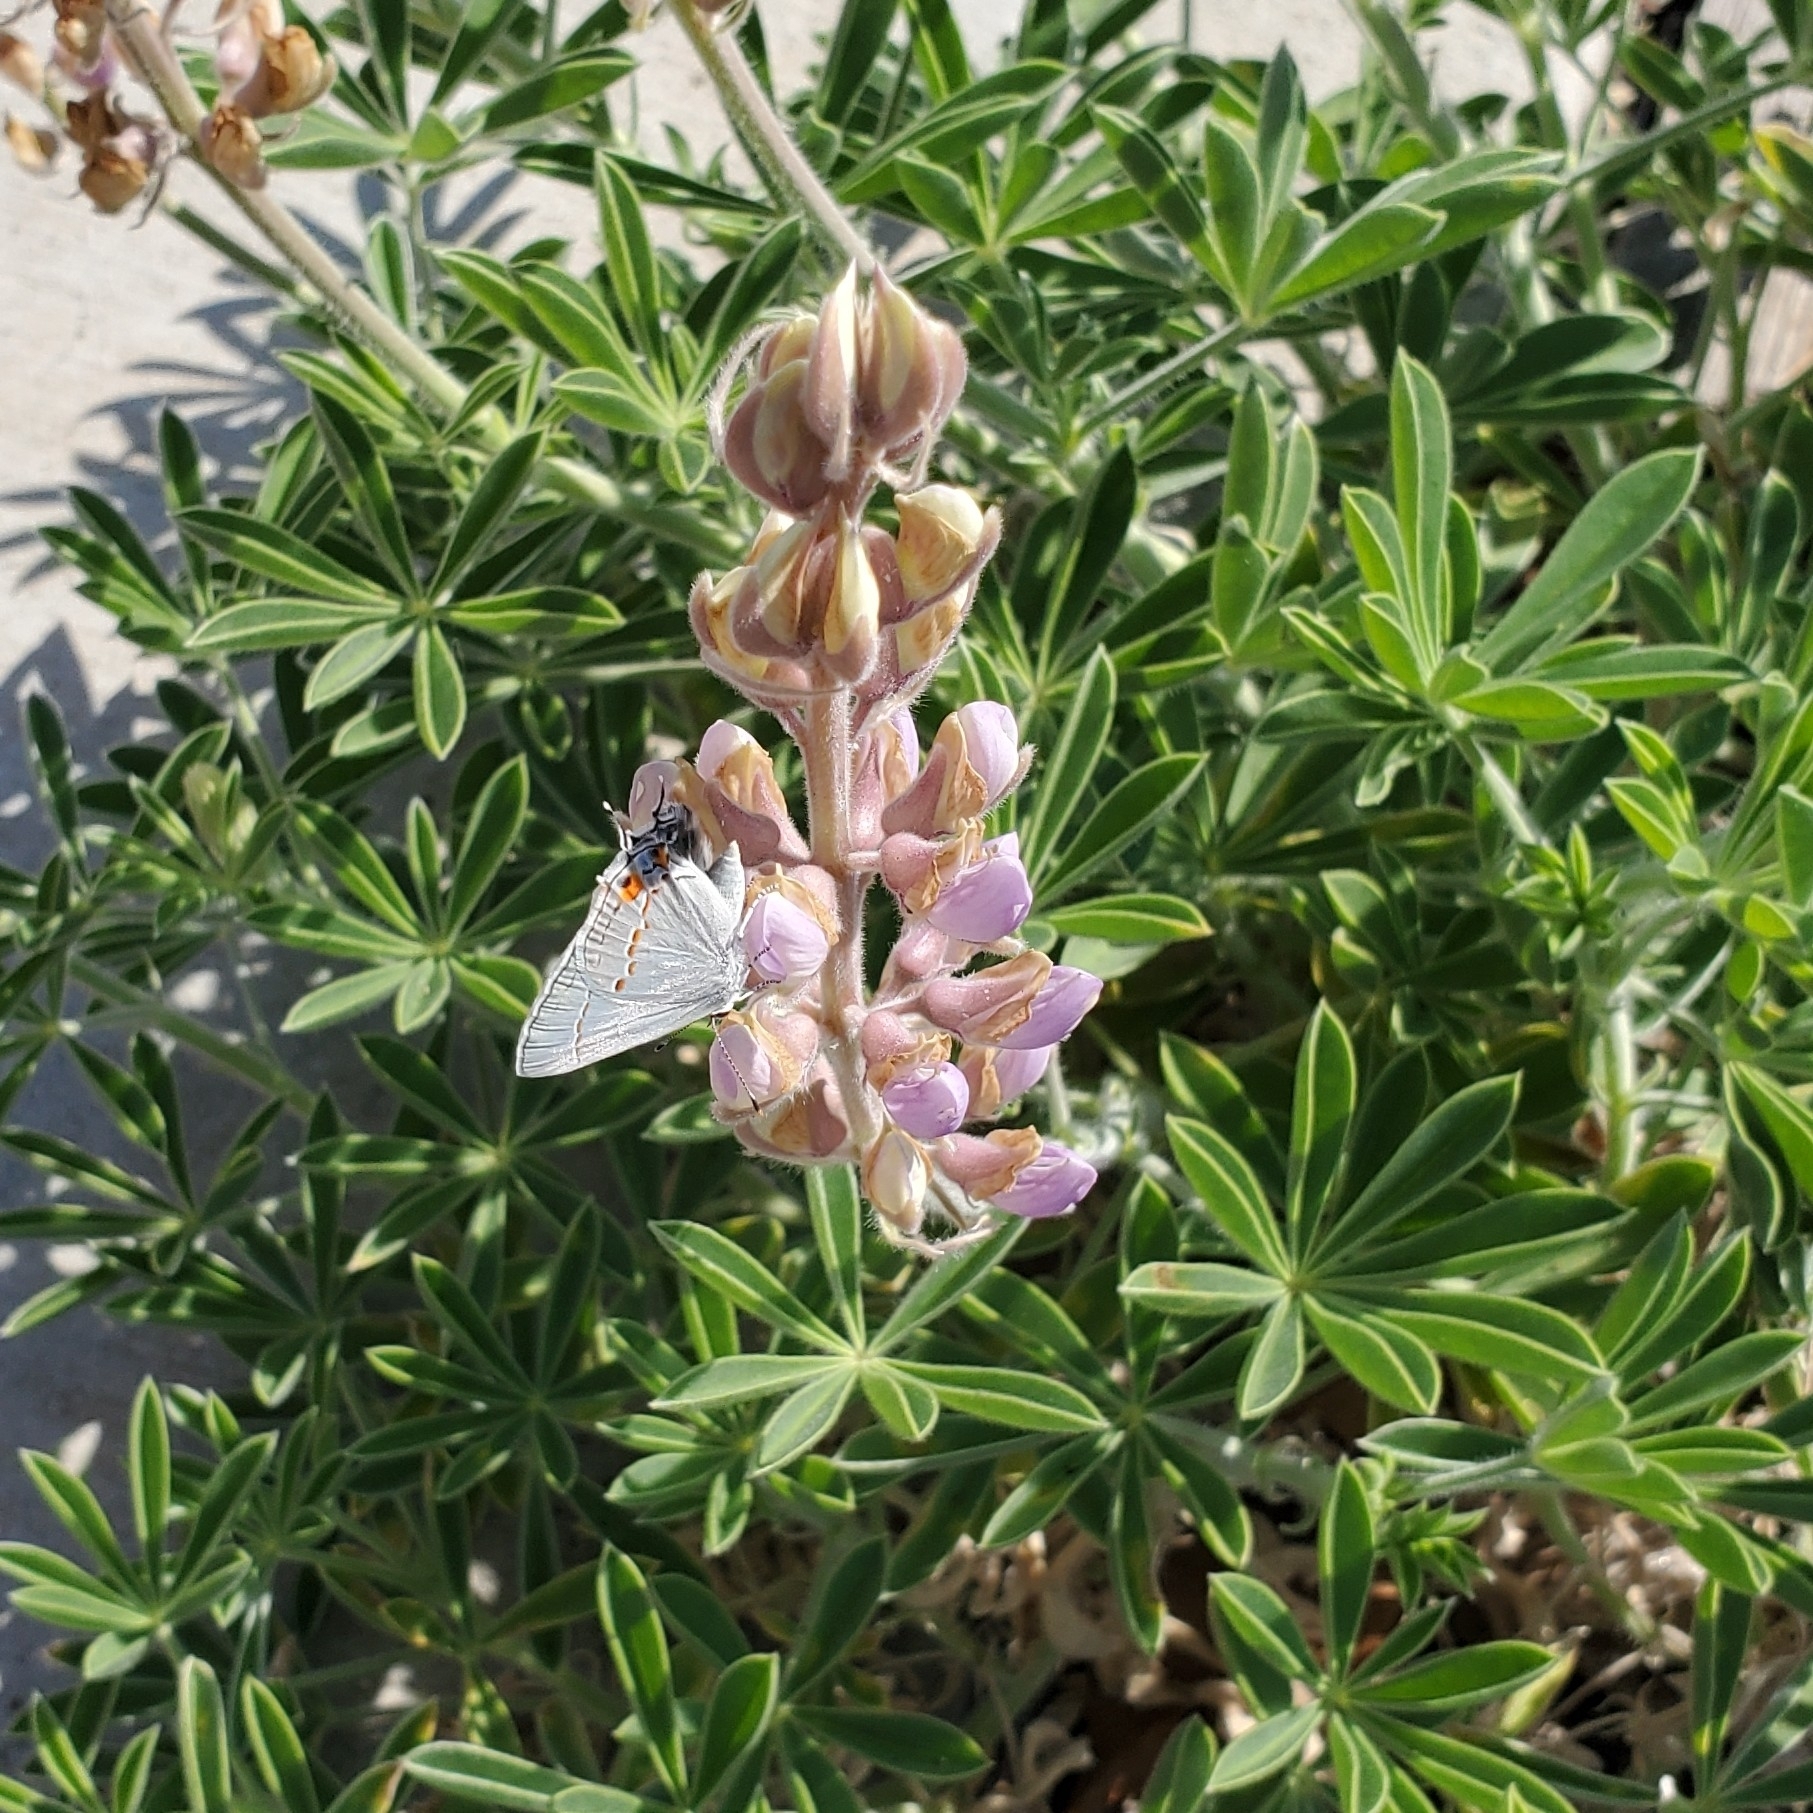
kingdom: Animalia
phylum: Arthropoda
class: Insecta
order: Lepidoptera
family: Lycaenidae
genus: Strymon
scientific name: Strymon melinus
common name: Gray hairstreak
